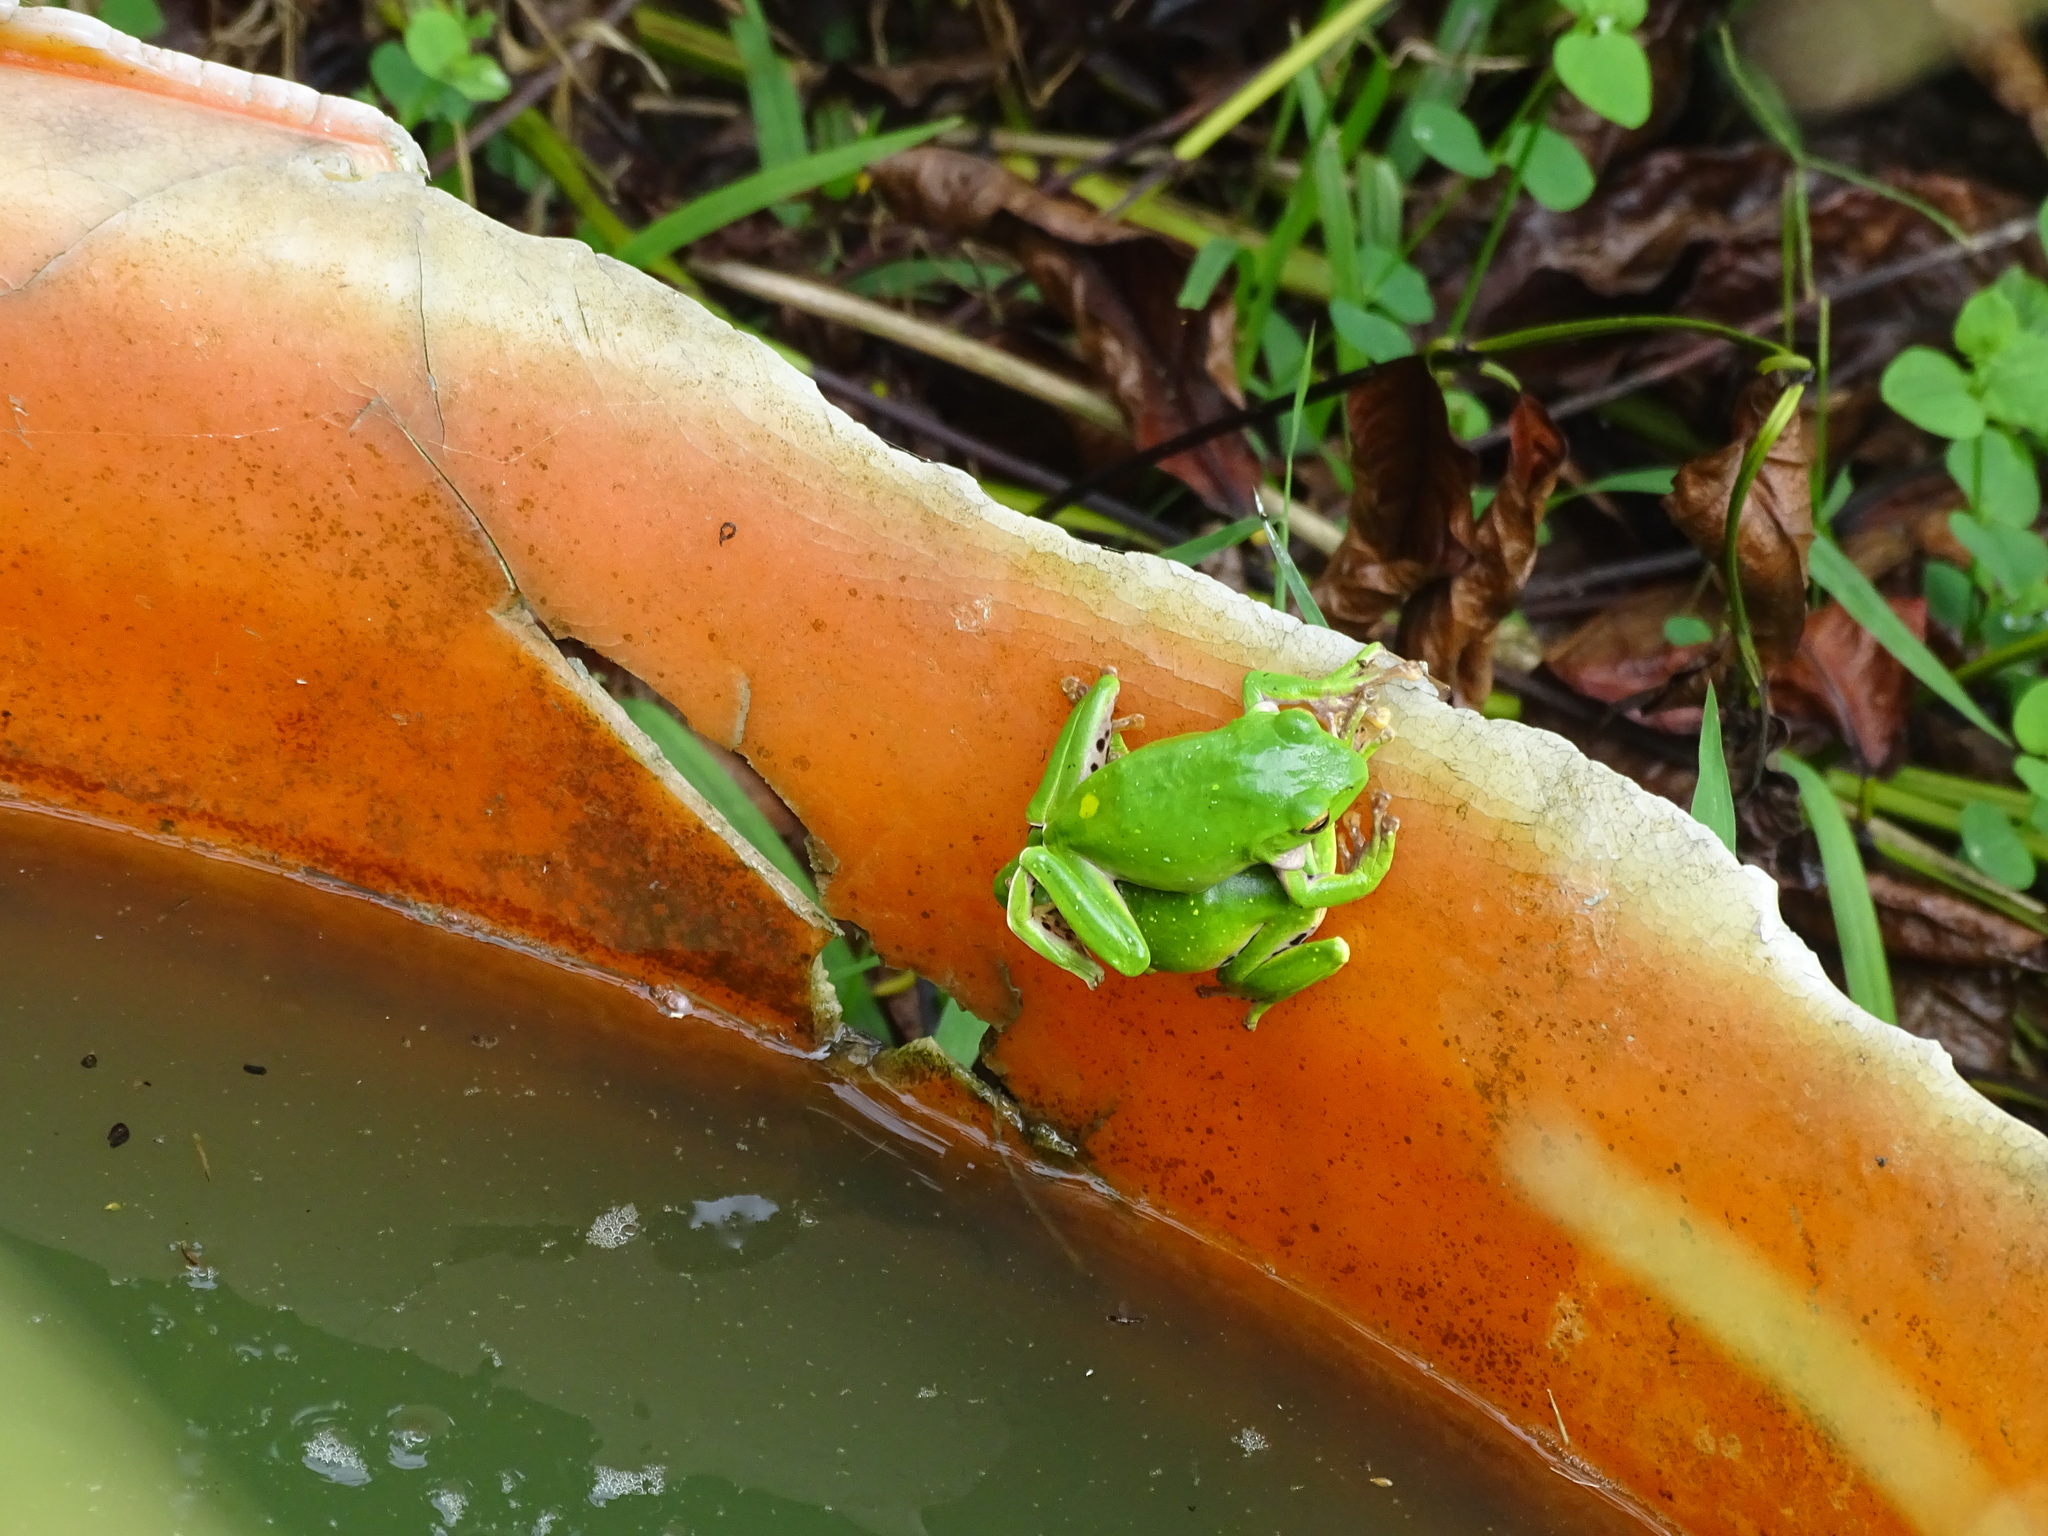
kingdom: Animalia
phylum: Chordata
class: Amphibia
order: Anura
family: Rhacophoridae
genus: Zhangixalus
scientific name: Zhangixalus moltrechti
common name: Moltrecht's treefrog
